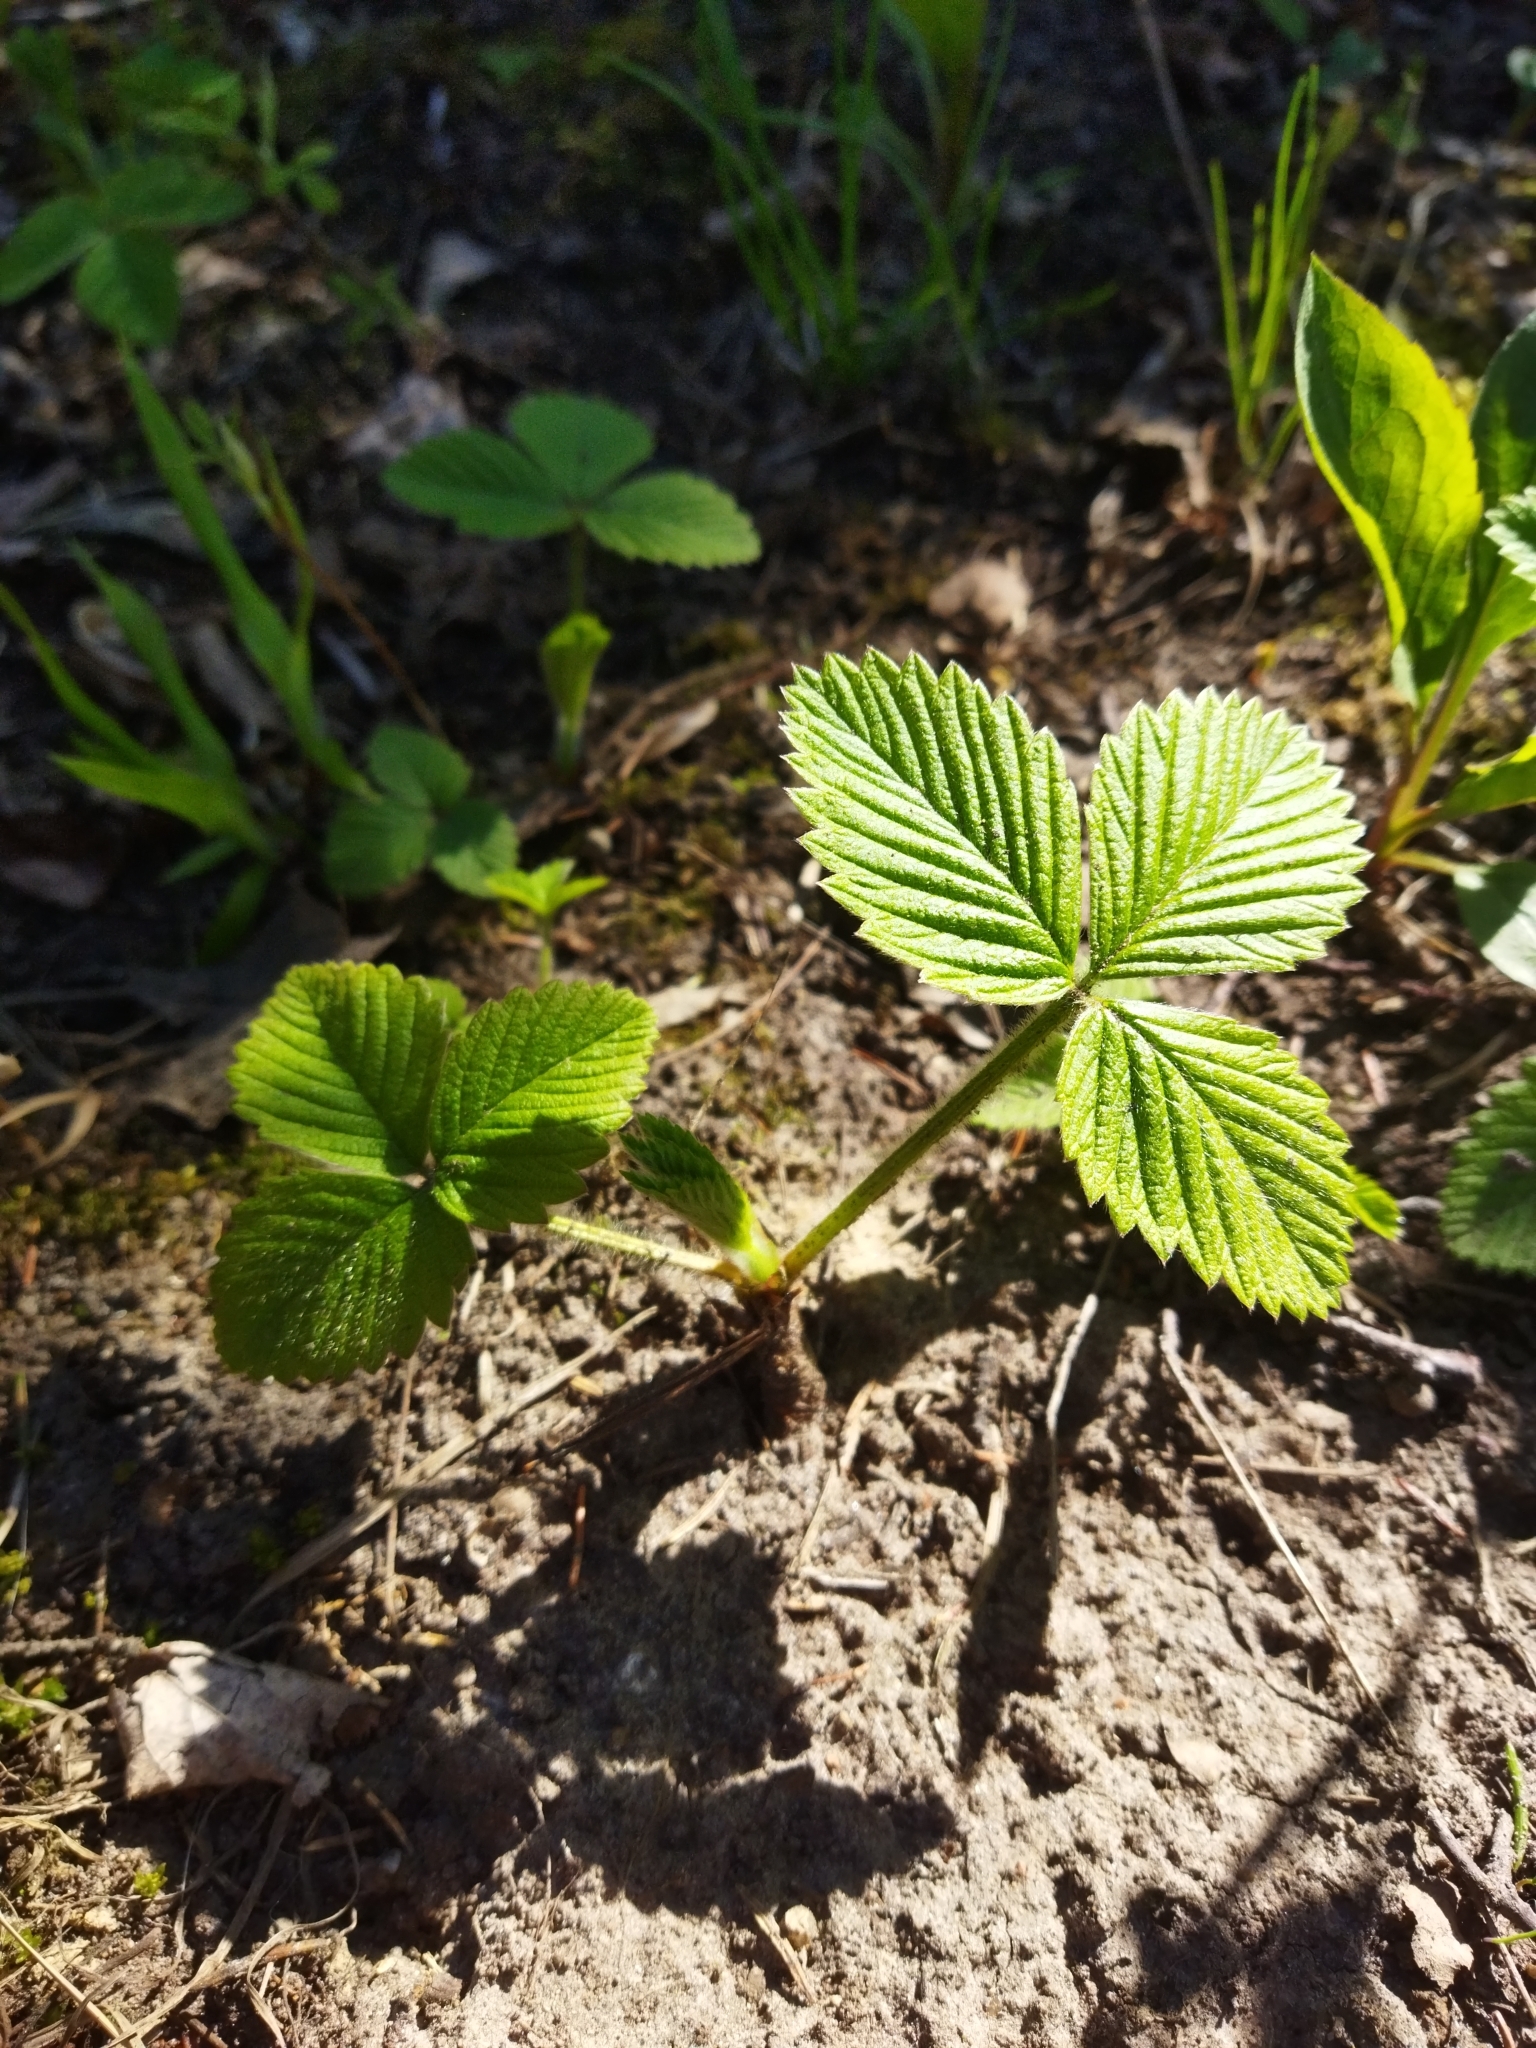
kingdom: Plantae
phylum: Tracheophyta
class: Magnoliopsida
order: Rosales
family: Rosaceae
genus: Fragaria
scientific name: Fragaria moschata
